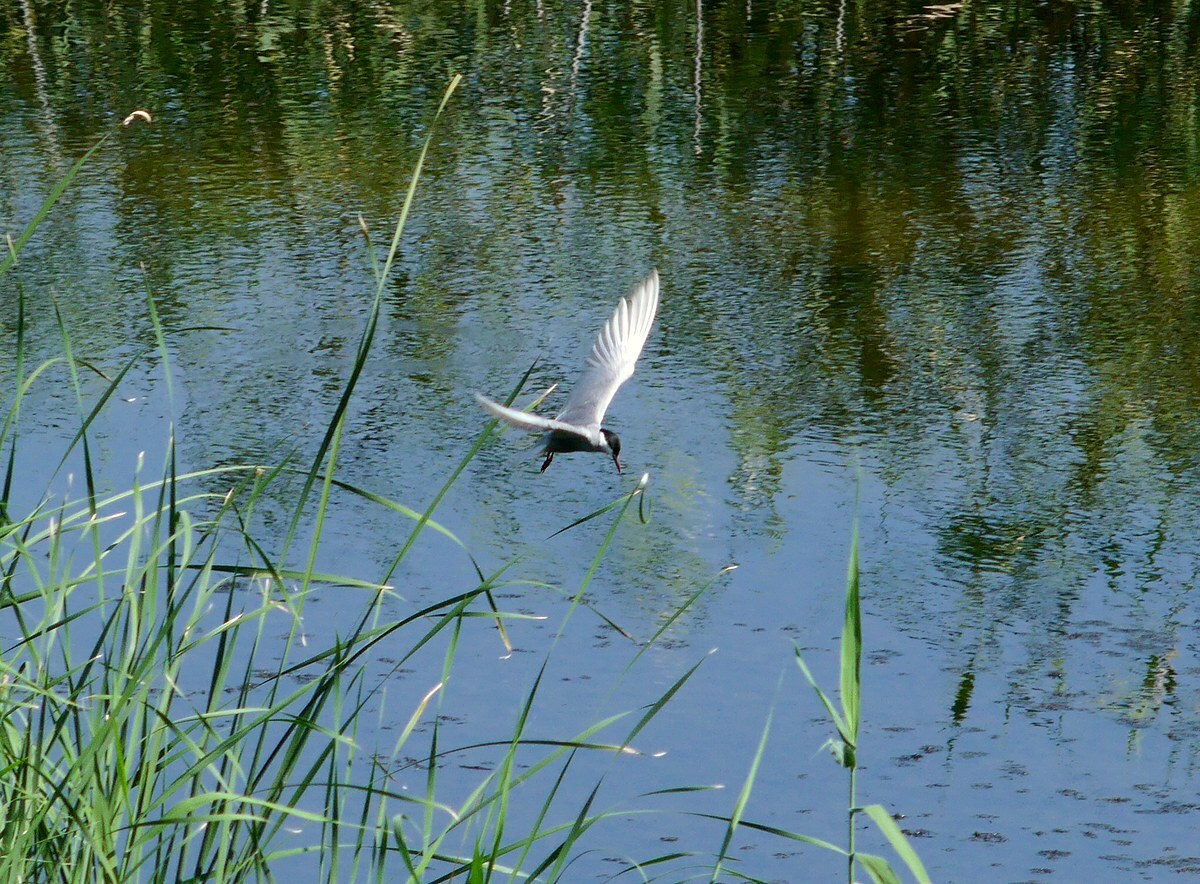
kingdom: Animalia
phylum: Chordata
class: Aves
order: Charadriiformes
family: Laridae
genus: Chlidonias
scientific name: Chlidonias hybrida
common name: Whiskered tern
